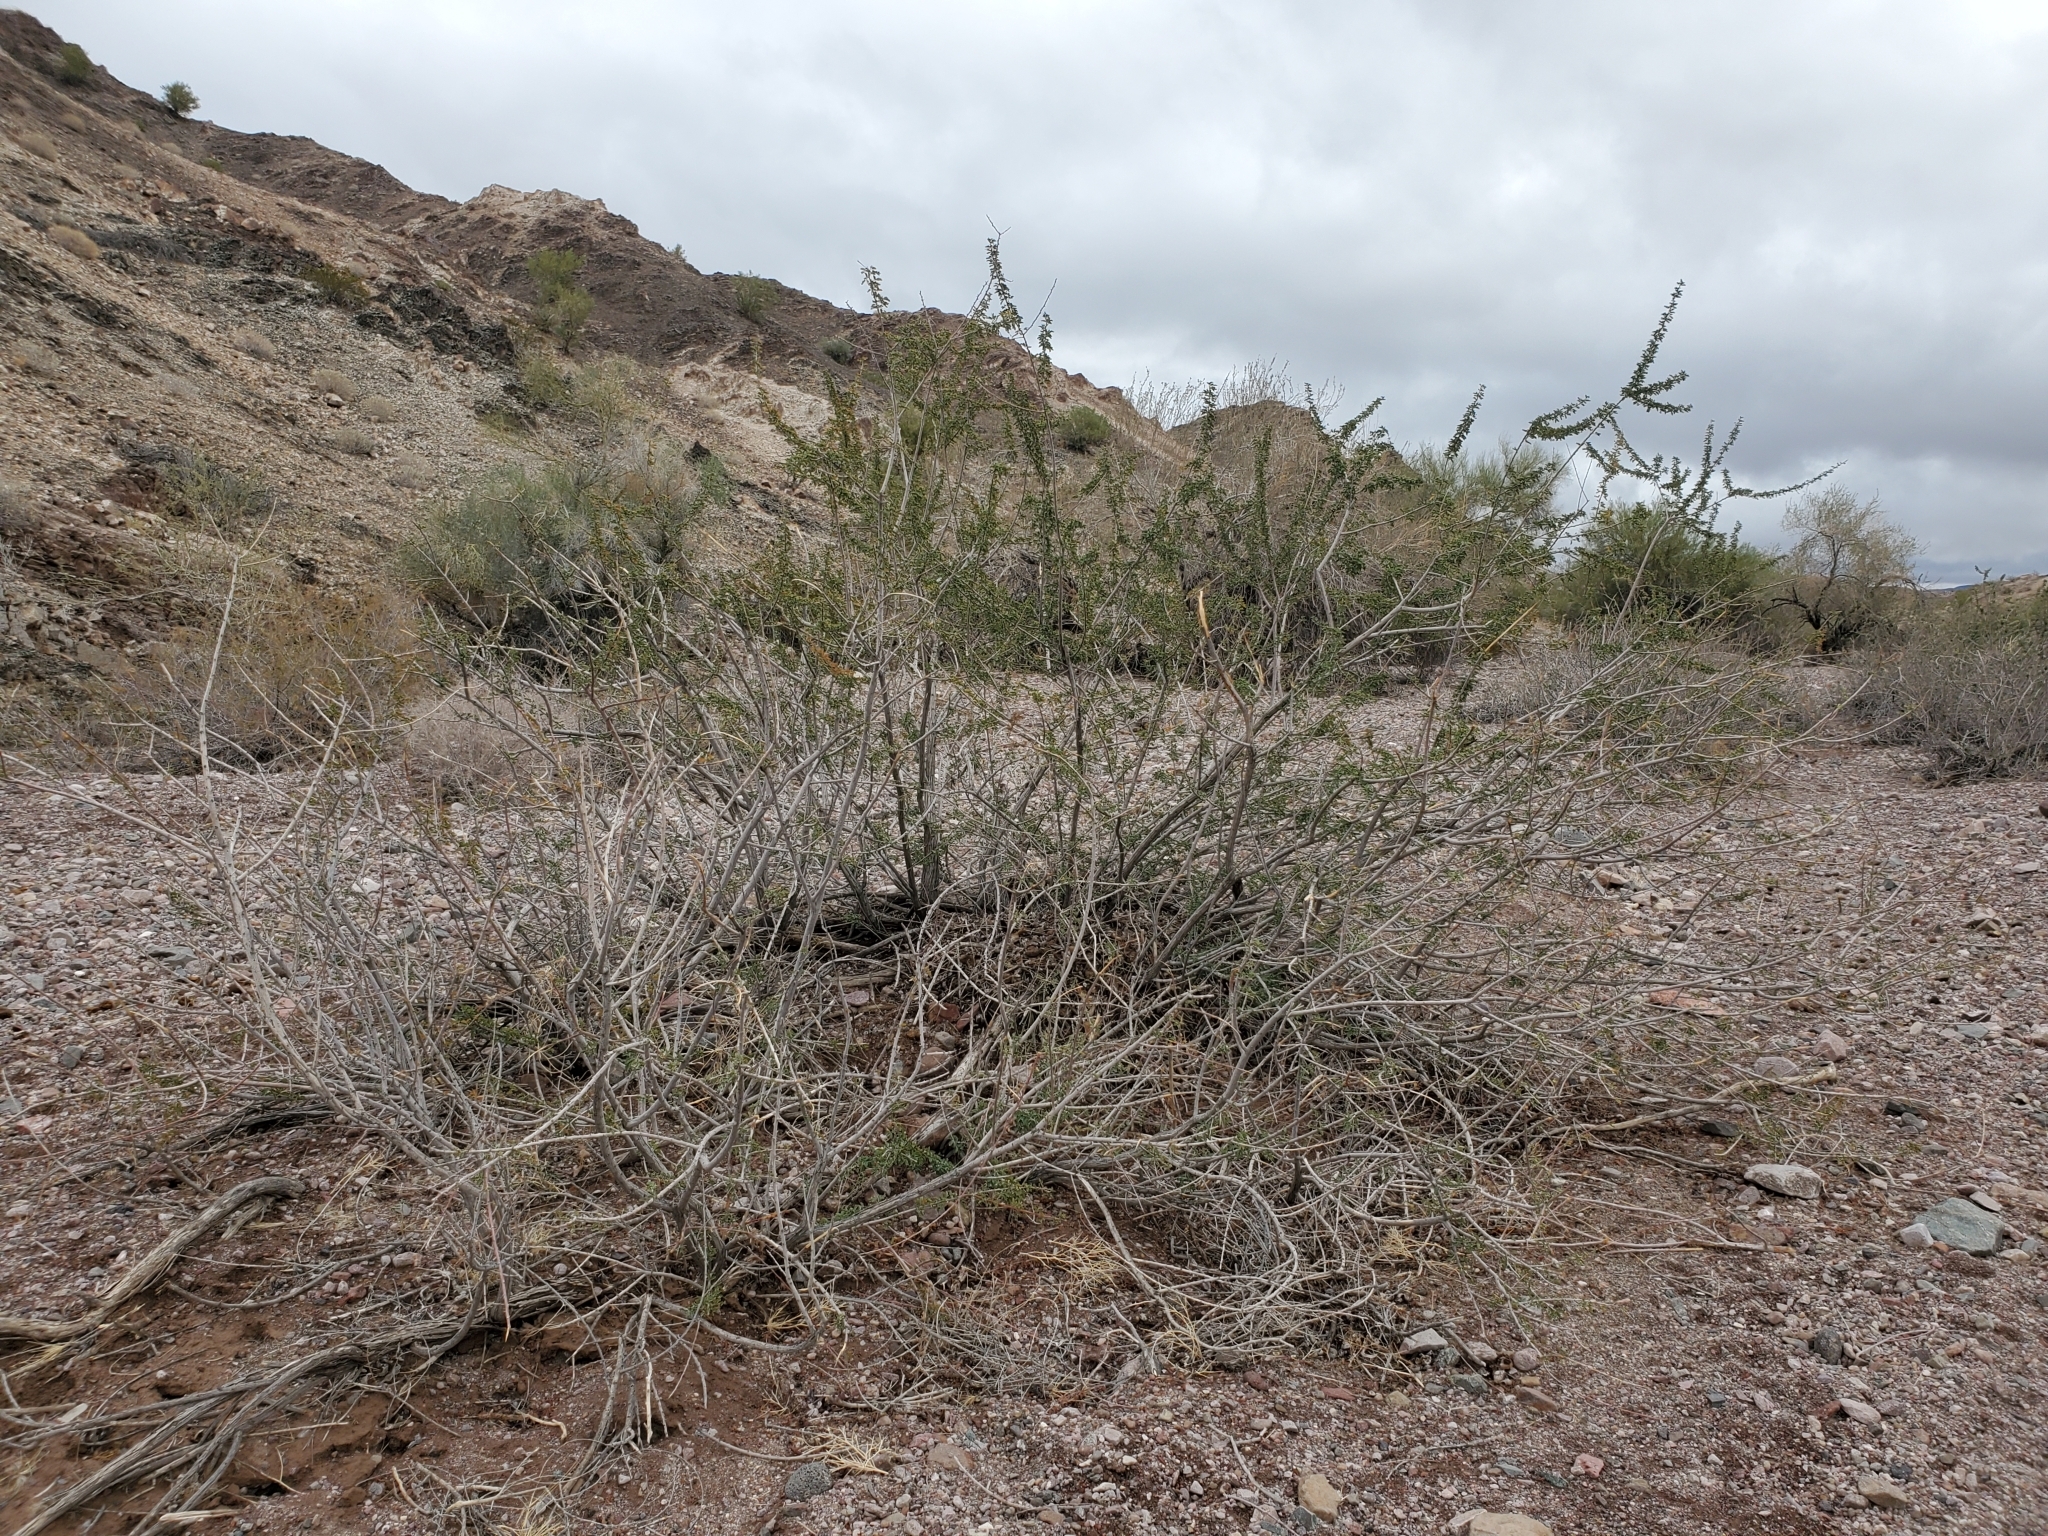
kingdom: Plantae
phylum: Tracheophyta
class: Magnoliopsida
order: Fabales
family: Fabaceae
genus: Senegalia
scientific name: Senegalia greggii
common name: Texas-mimosa
